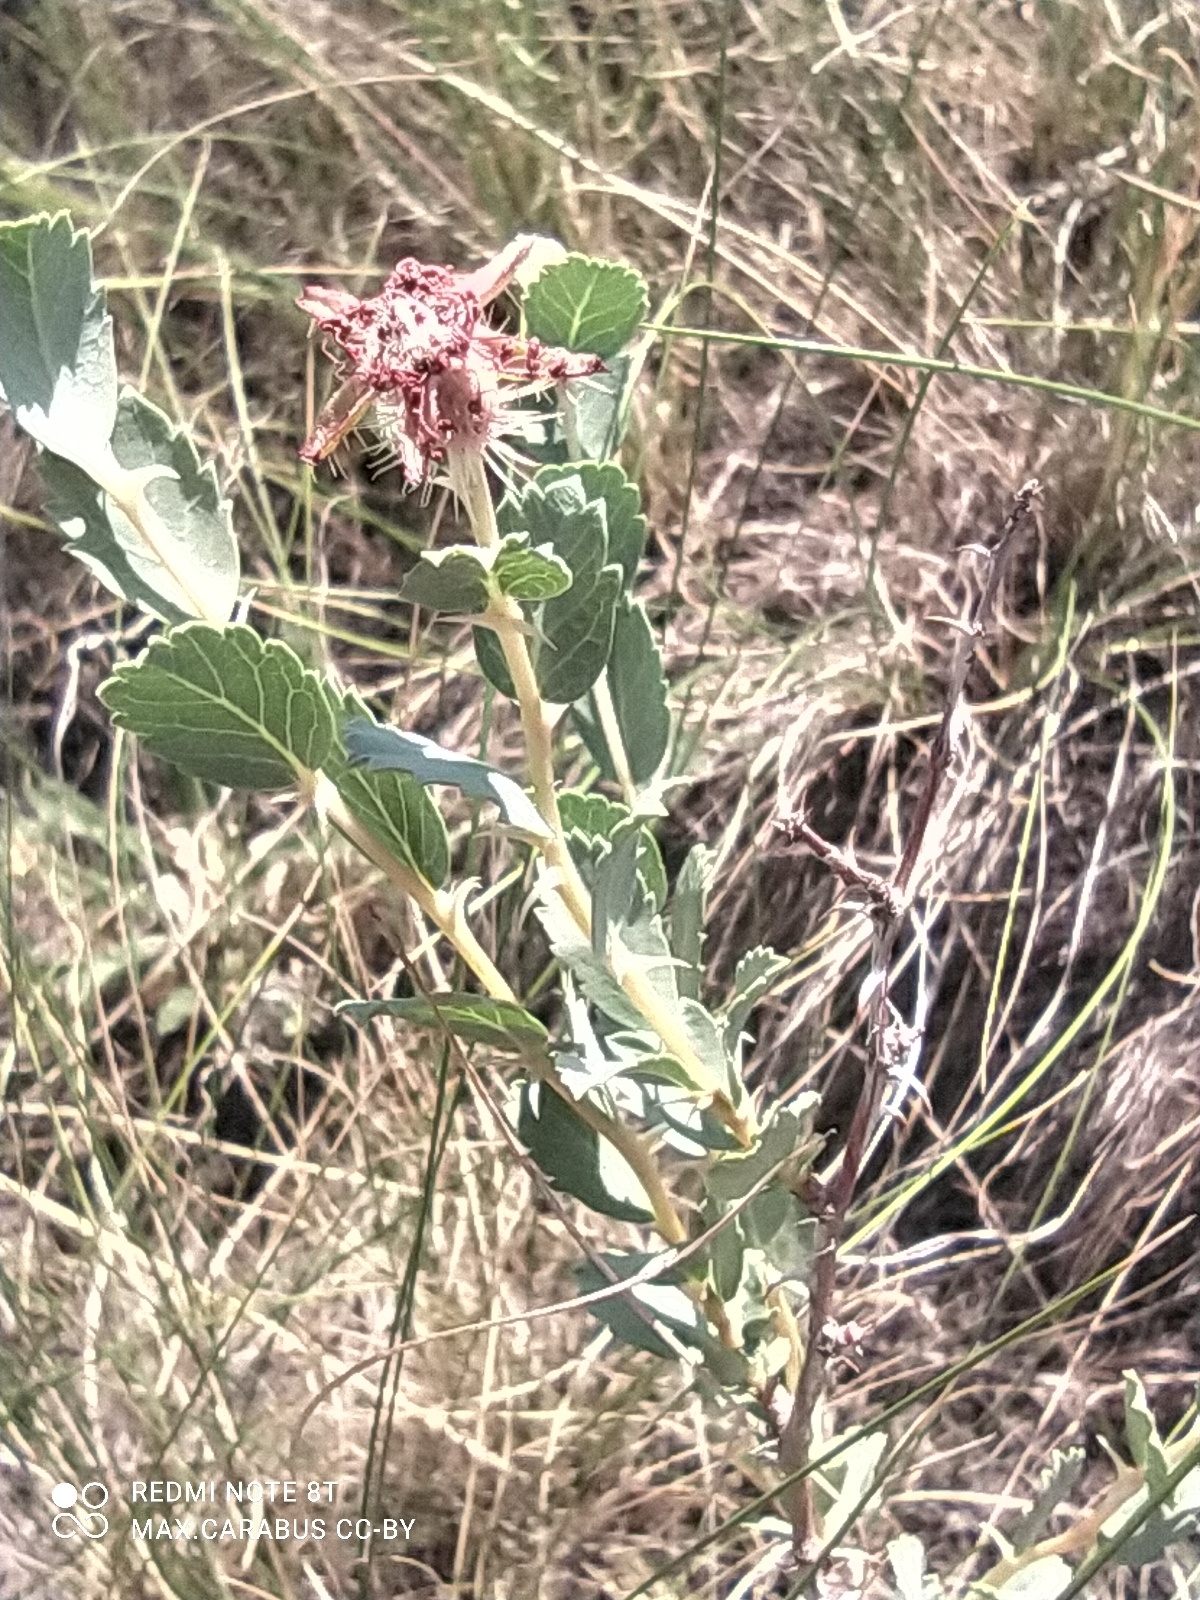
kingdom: Plantae
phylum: Tracheophyta
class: Magnoliopsida
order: Rosales
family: Rosaceae
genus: Rosa
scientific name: Rosa persica
